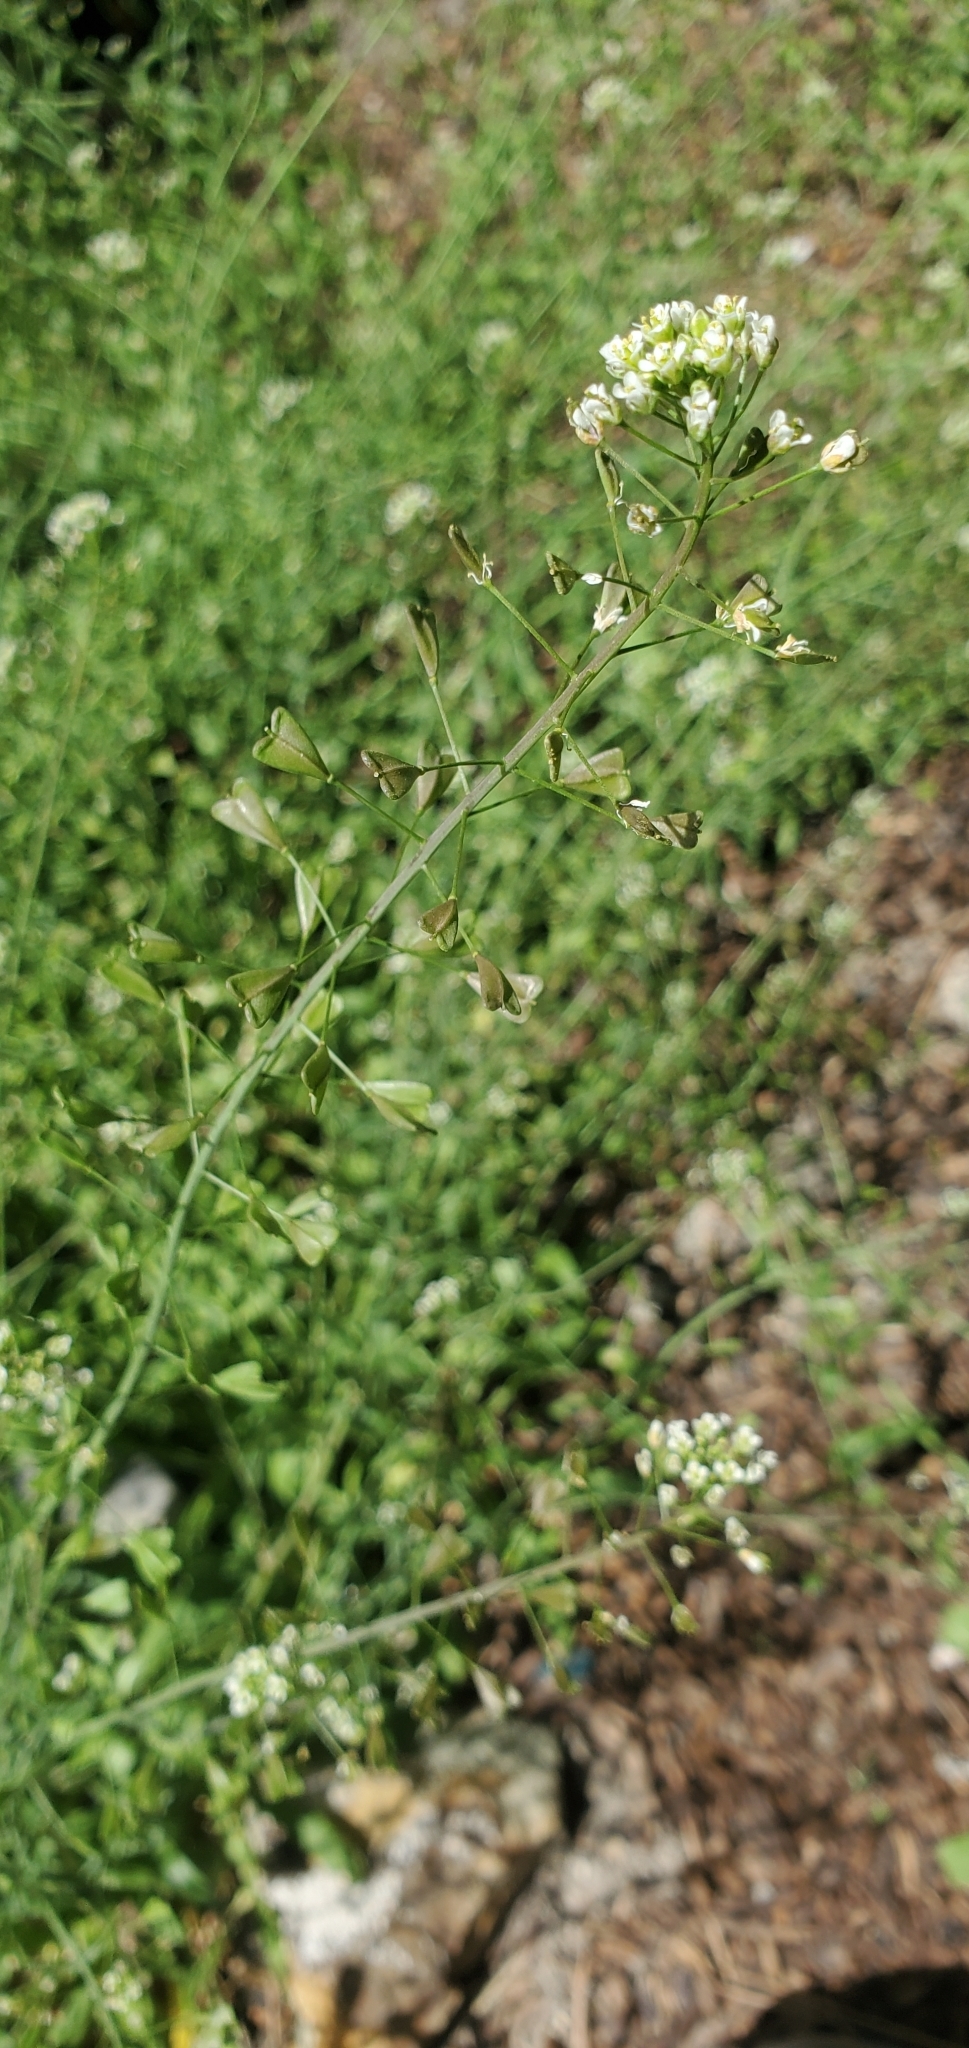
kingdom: Plantae
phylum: Tracheophyta
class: Magnoliopsida
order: Brassicales
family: Brassicaceae
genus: Capsella
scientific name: Capsella bursa-pastoris
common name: Shepherd's purse
